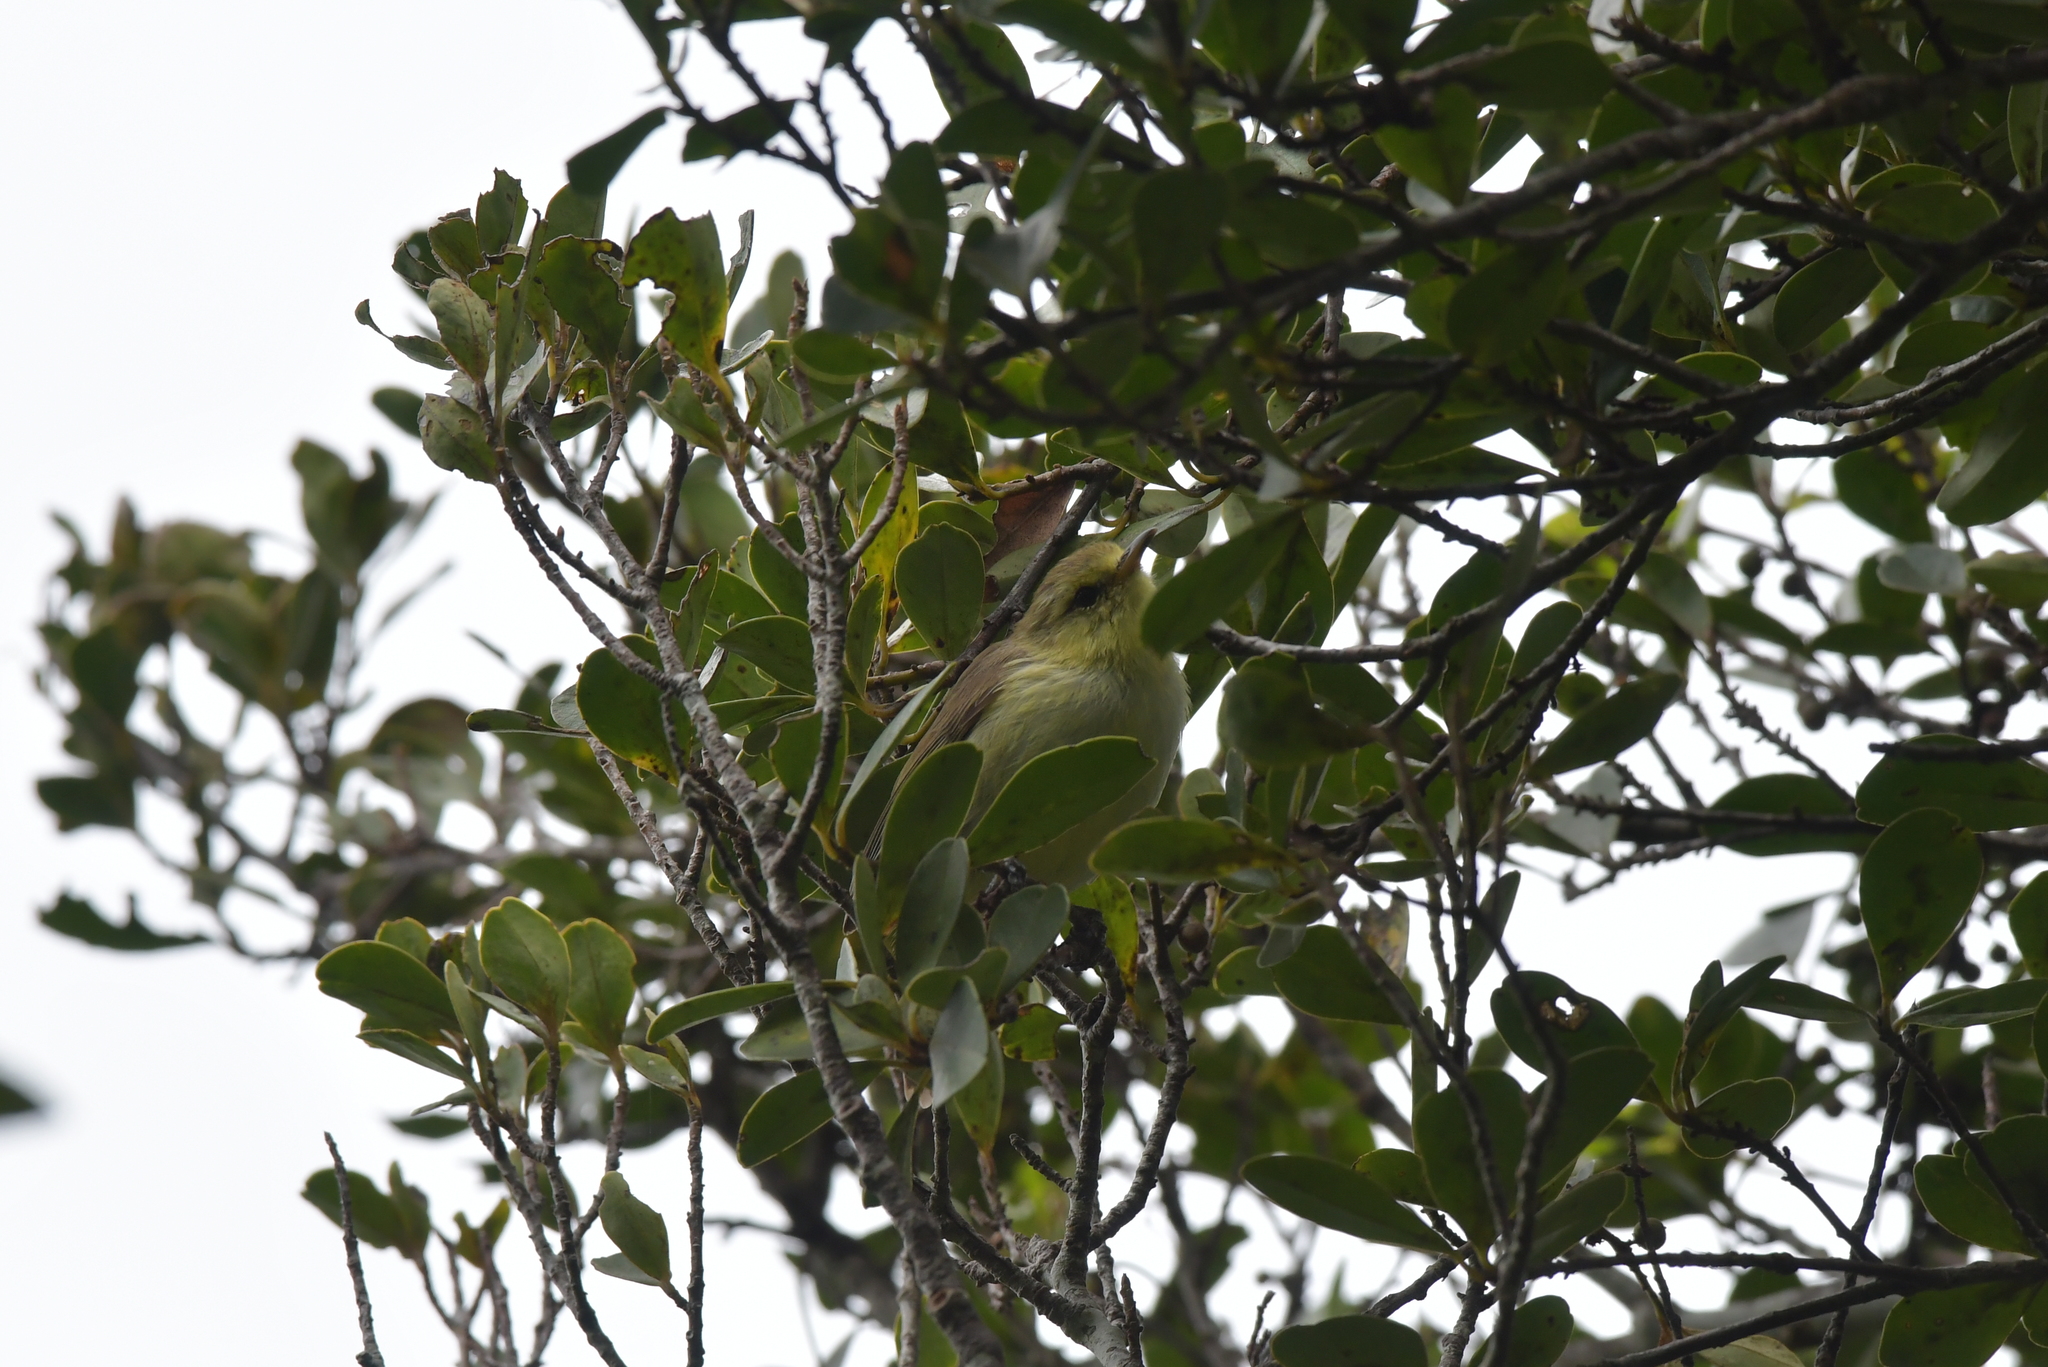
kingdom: Animalia
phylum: Chordata
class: Aves
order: Passeriformes
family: Acanthizidae
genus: Gerygone
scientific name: Gerygone albofrontata
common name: Chatham gerygone
